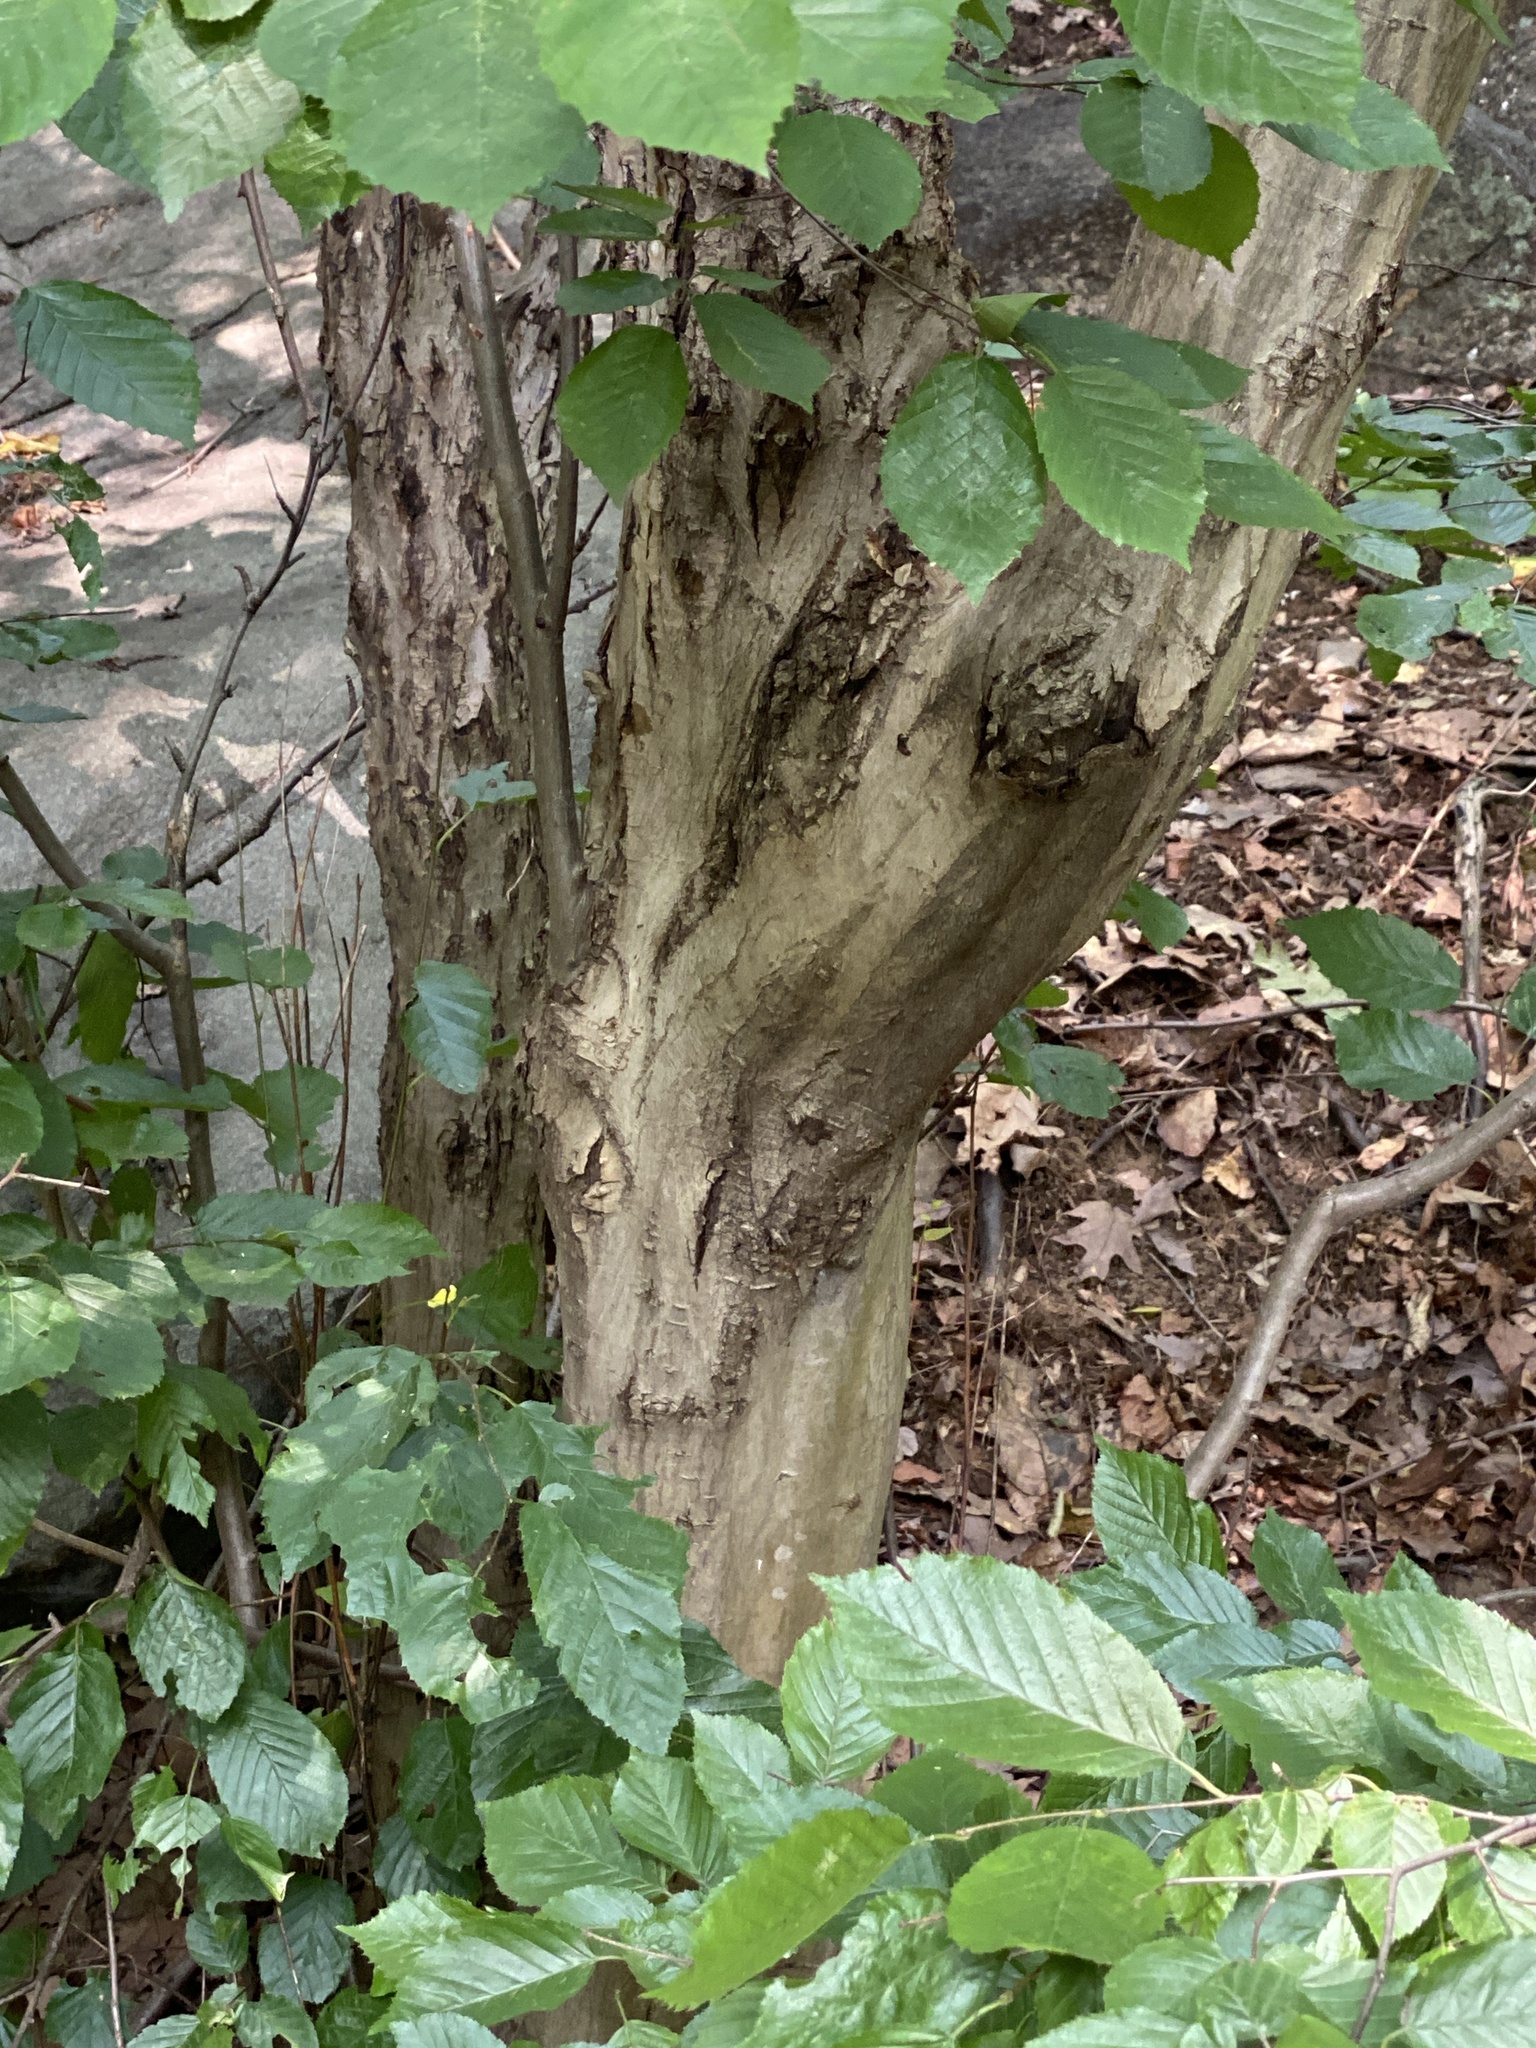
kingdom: Plantae
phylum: Tracheophyta
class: Magnoliopsida
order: Fagales
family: Betulaceae
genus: Carpinus
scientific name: Carpinus caroliniana
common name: American hornbeam
